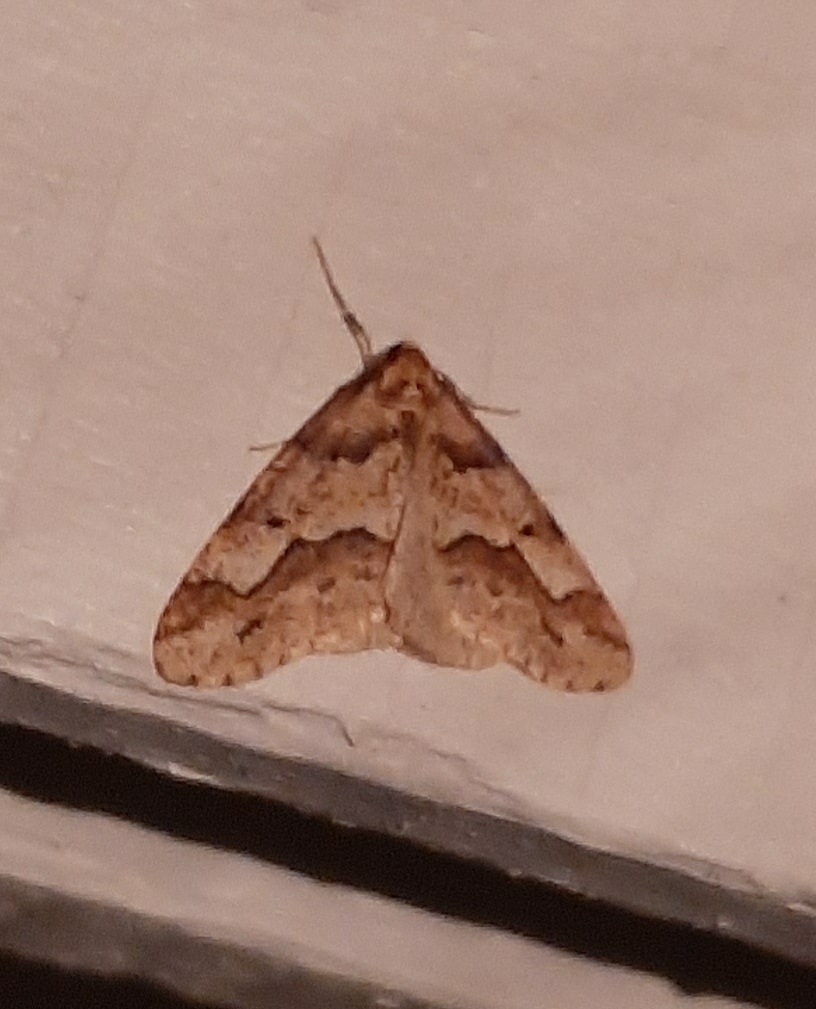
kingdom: Animalia
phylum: Arthropoda
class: Insecta
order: Lepidoptera
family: Geometridae
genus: Erannis
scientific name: Erannis defoliaria
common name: Mottled umber
